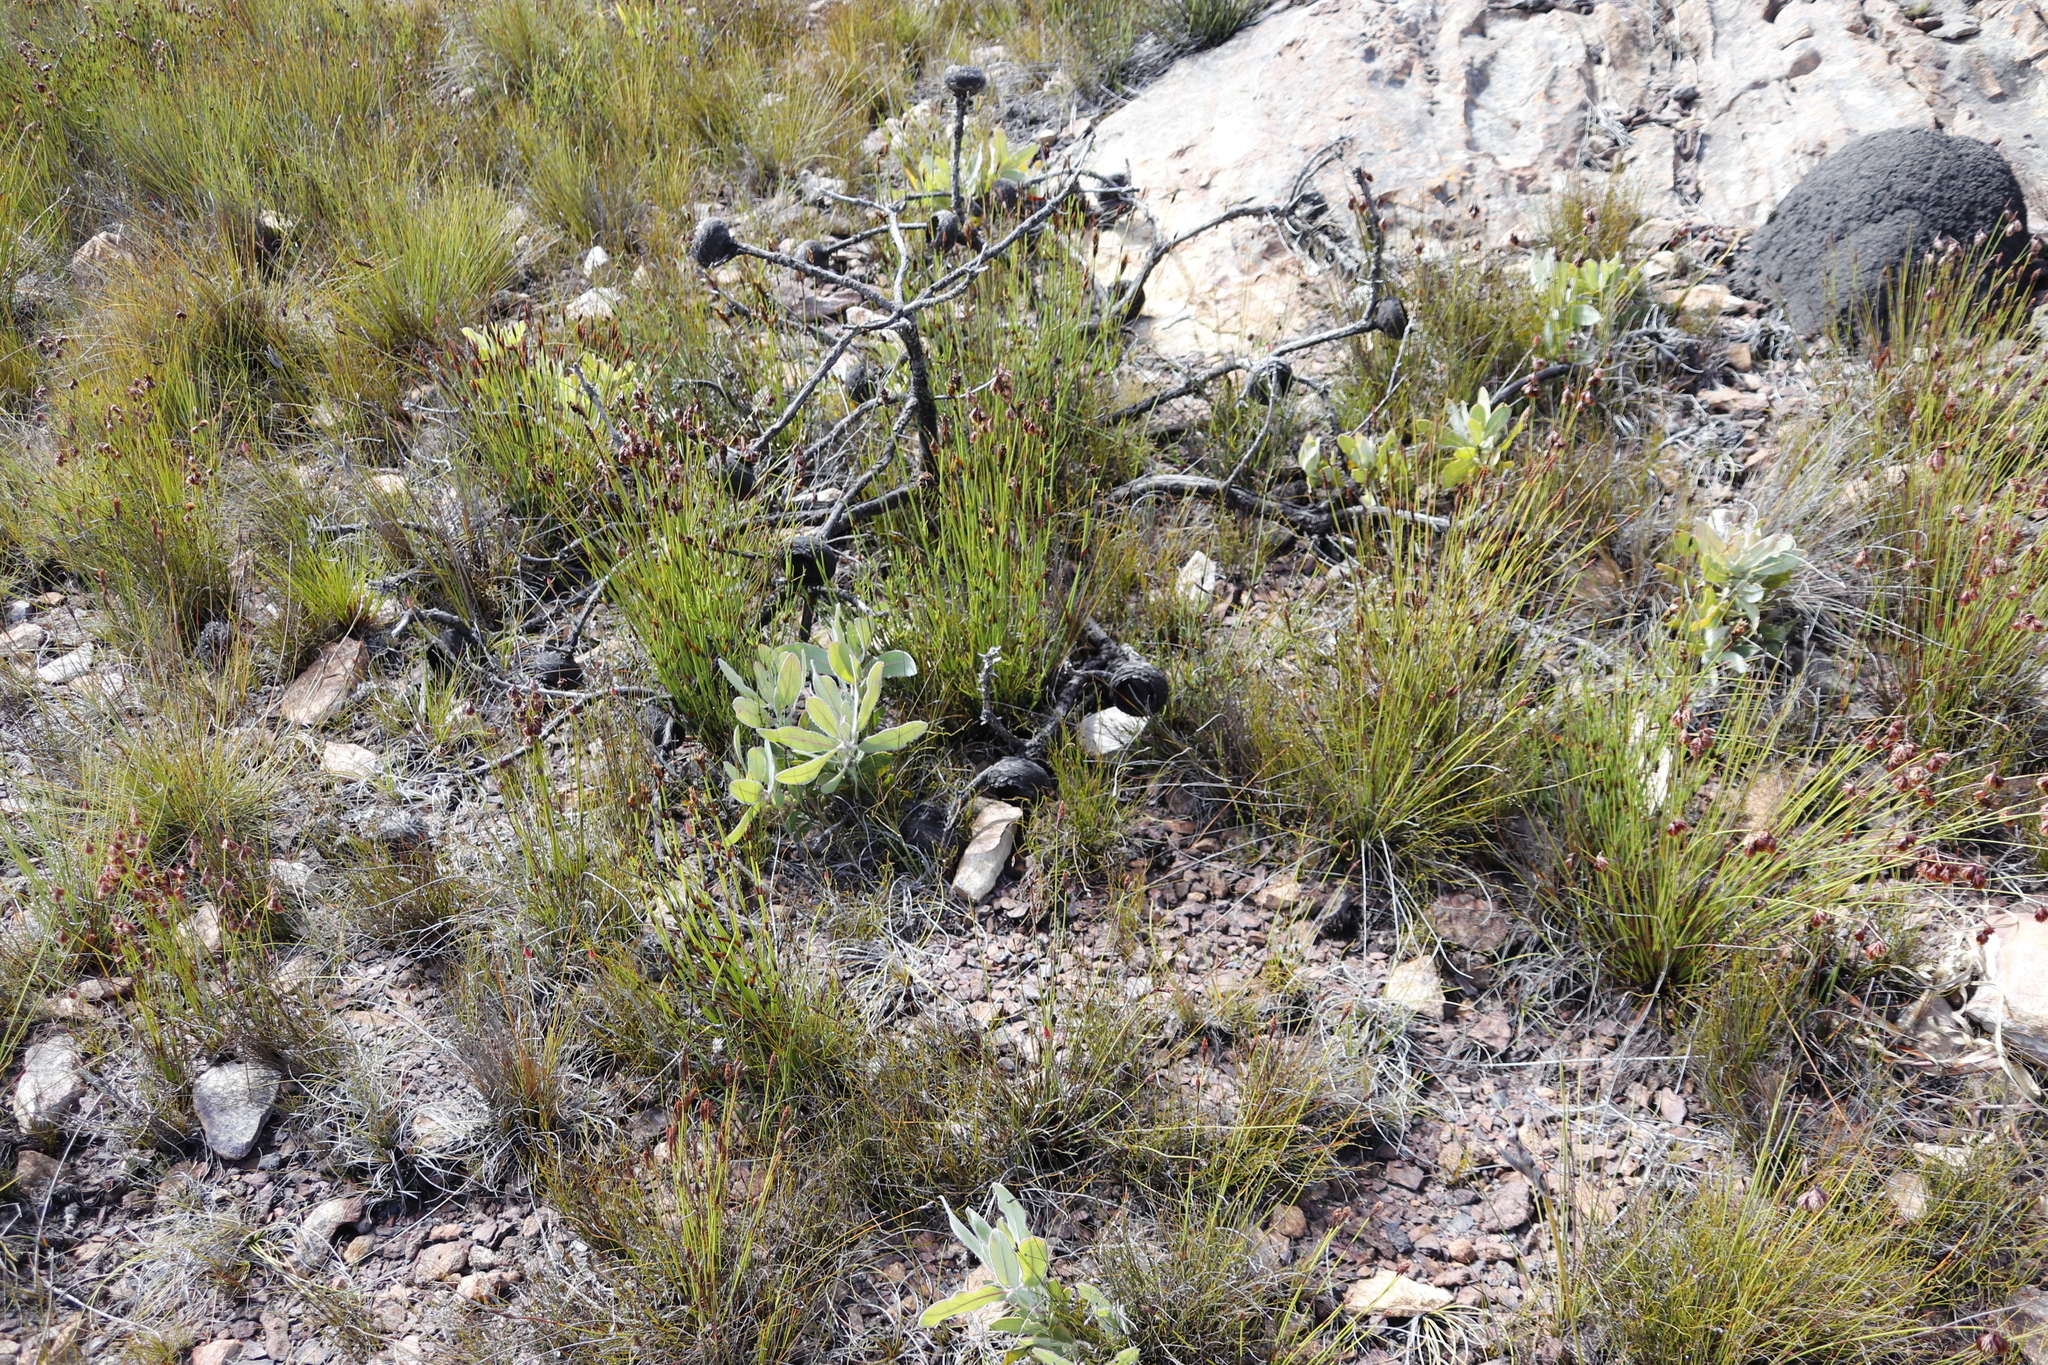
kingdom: Plantae
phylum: Tracheophyta
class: Magnoliopsida
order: Proteales
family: Proteaceae
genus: Protea
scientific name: Protea magnifica
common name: Bearded sugarbush
